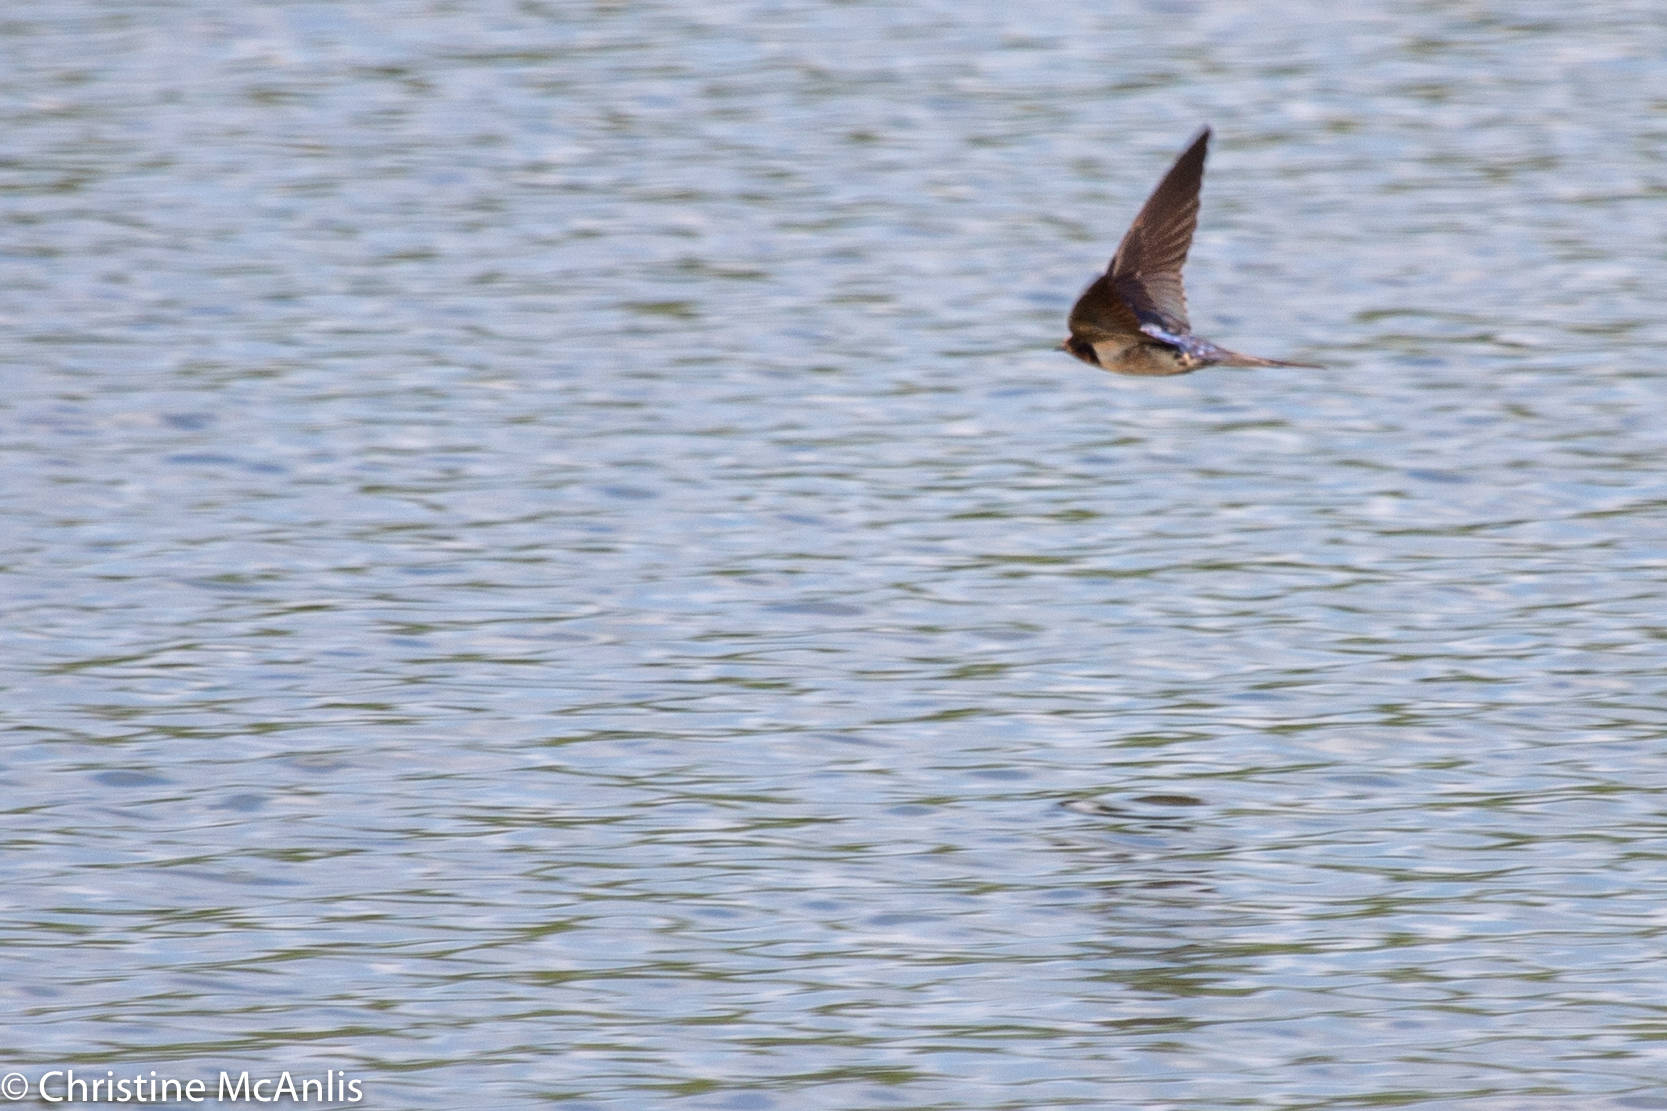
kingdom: Animalia
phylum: Chordata
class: Aves
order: Passeriformes
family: Hirundinidae
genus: Hirundo
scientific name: Hirundo rustica
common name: Barn swallow
